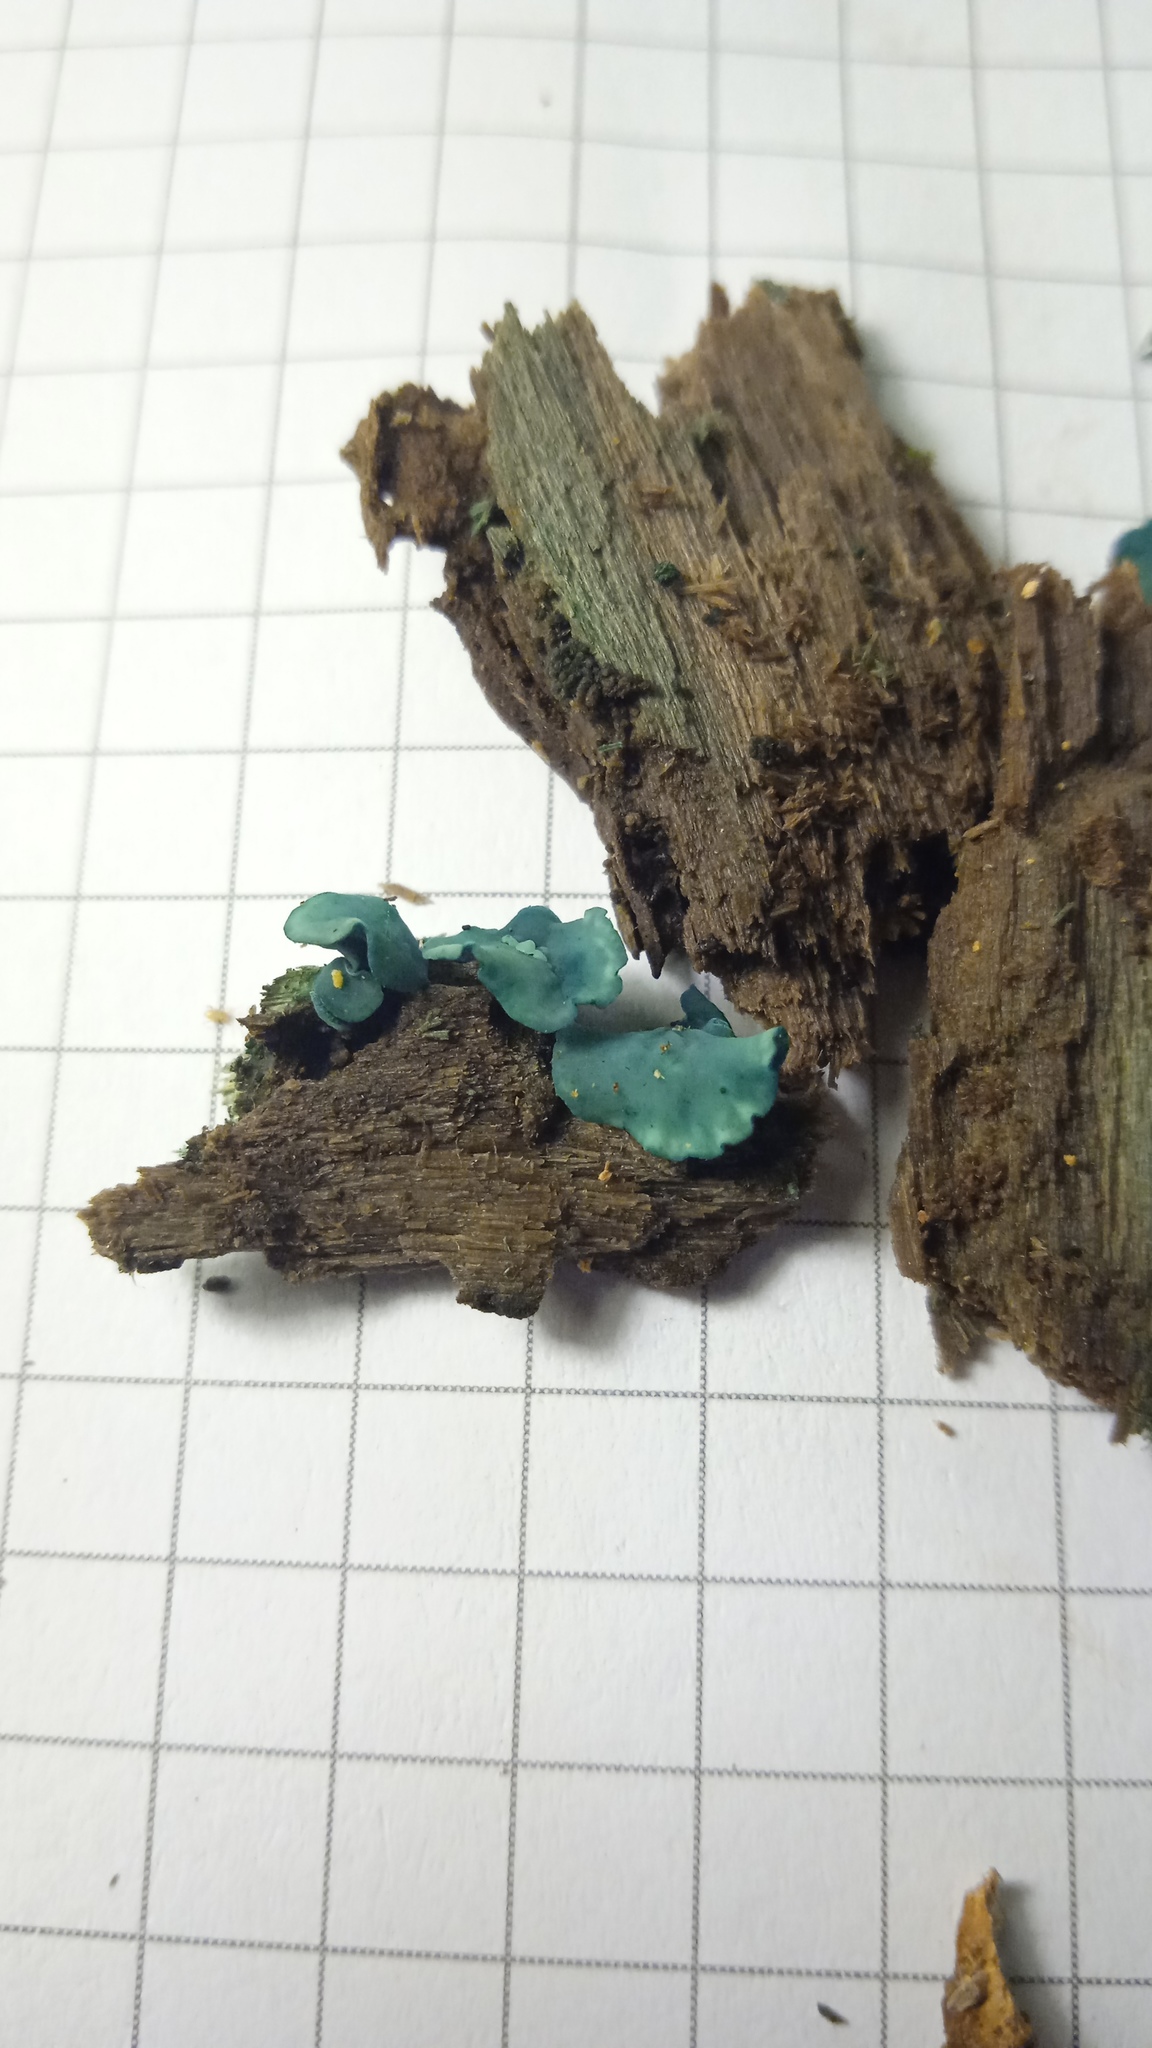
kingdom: Fungi
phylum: Ascomycota
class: Leotiomycetes
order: Helotiales
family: Chlorociboriaceae
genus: Chlorociboria
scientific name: Chlorociboria aeruginascens
